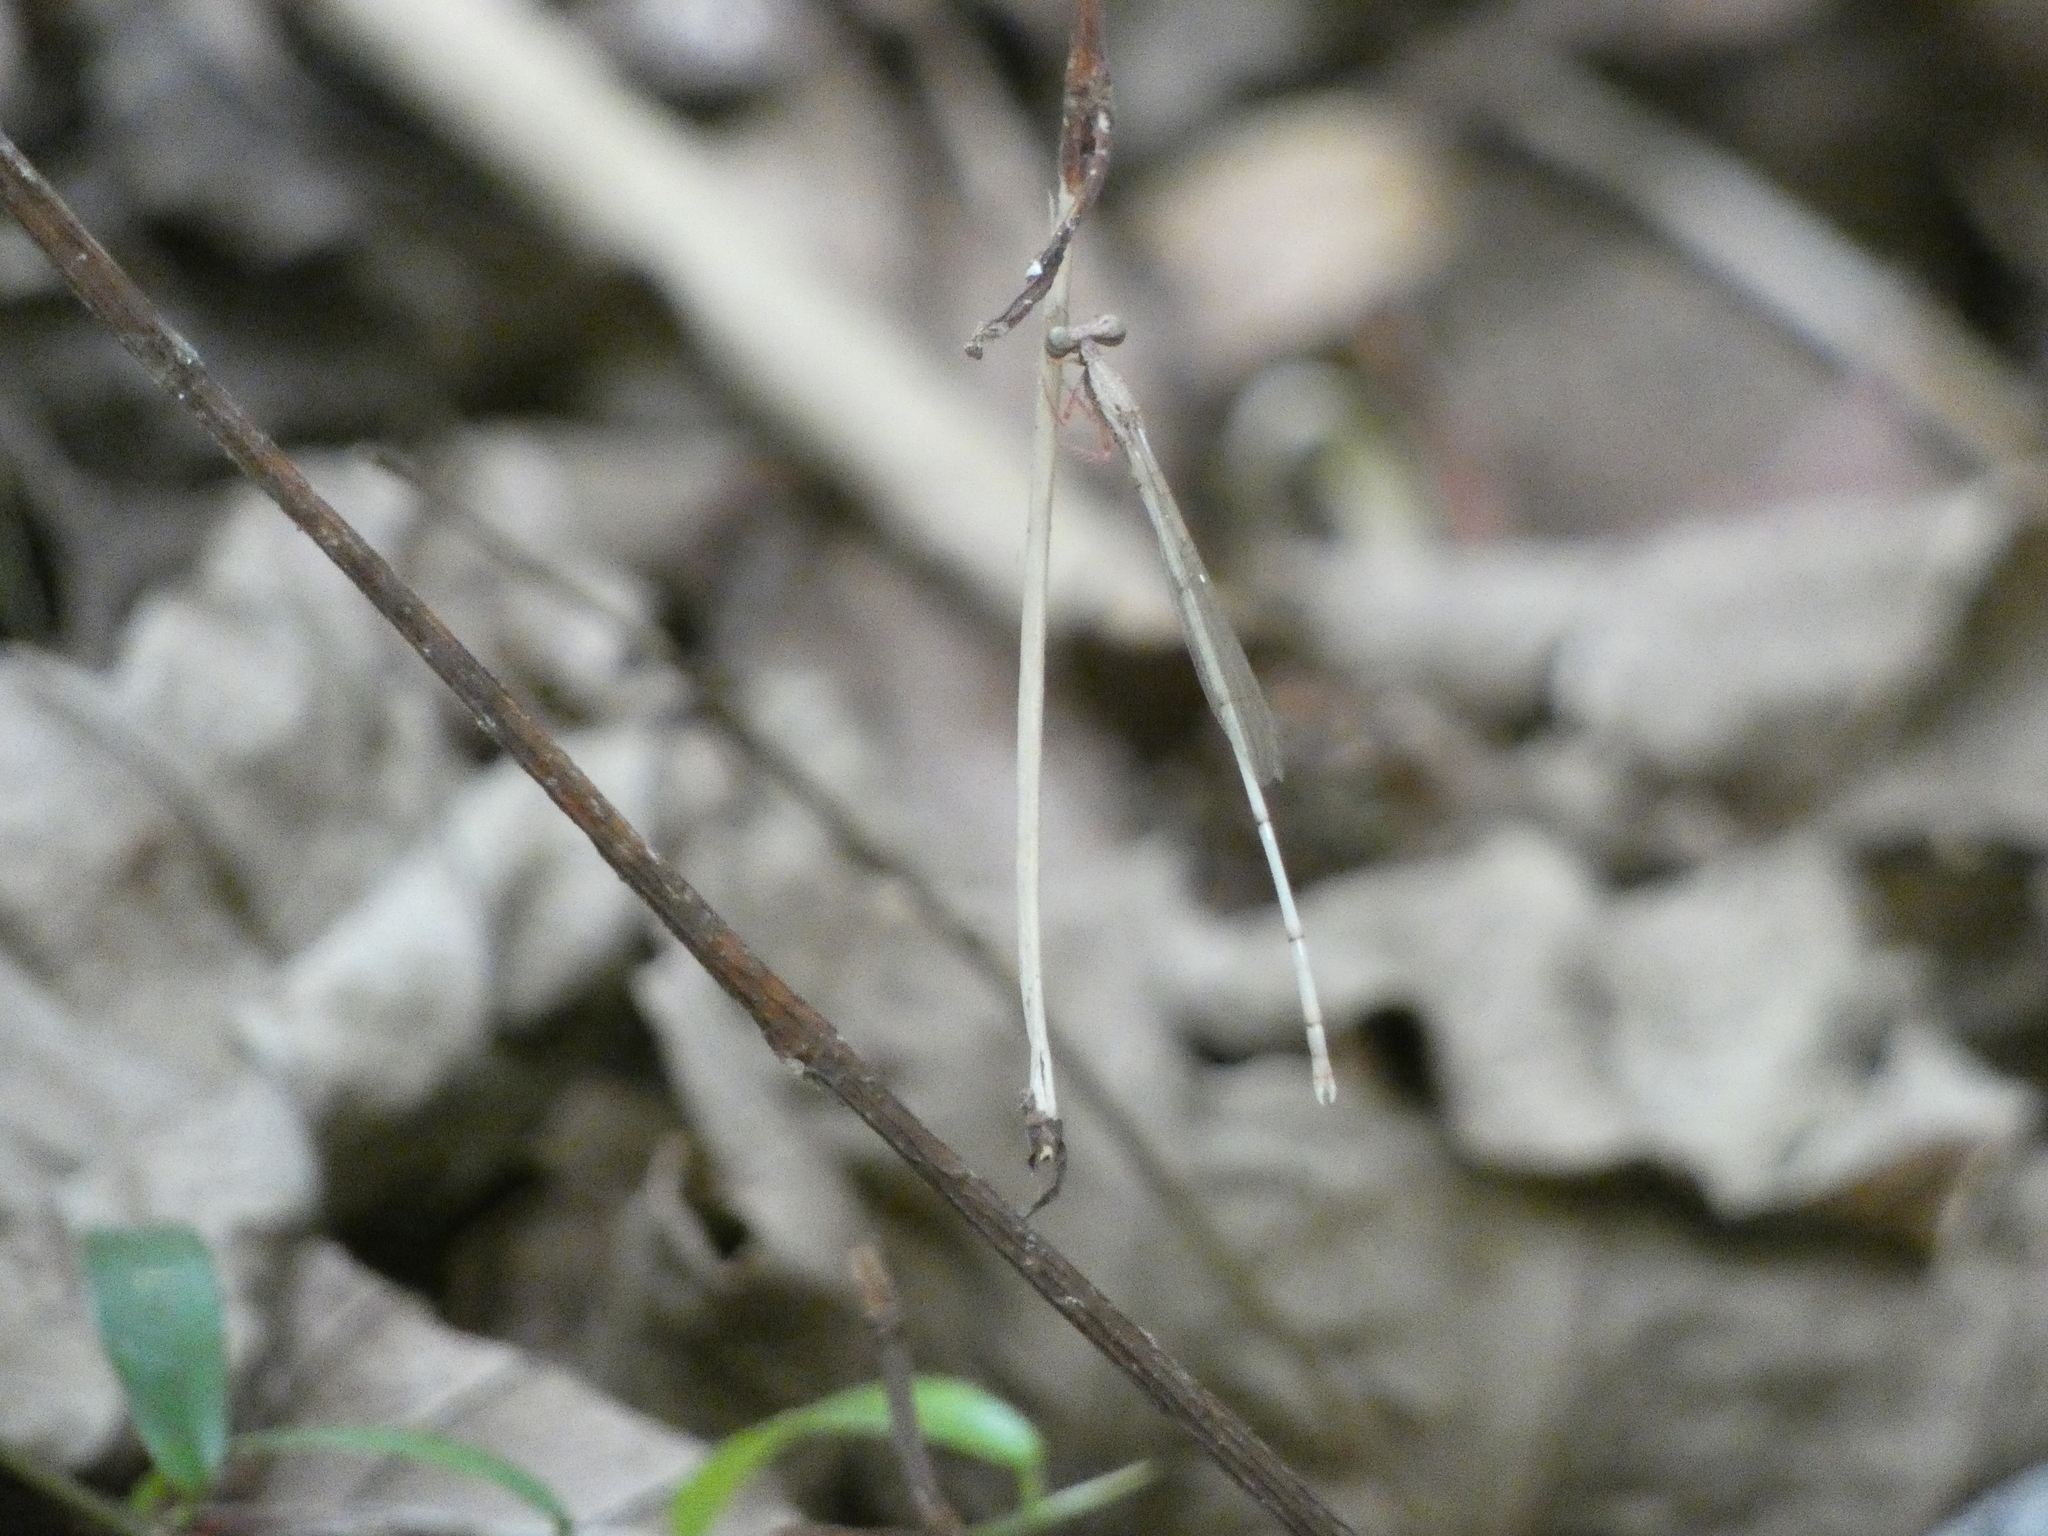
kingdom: Animalia
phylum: Arthropoda
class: Insecta
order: Odonata
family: Platycnemididae
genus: Copera
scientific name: Copera vittata
